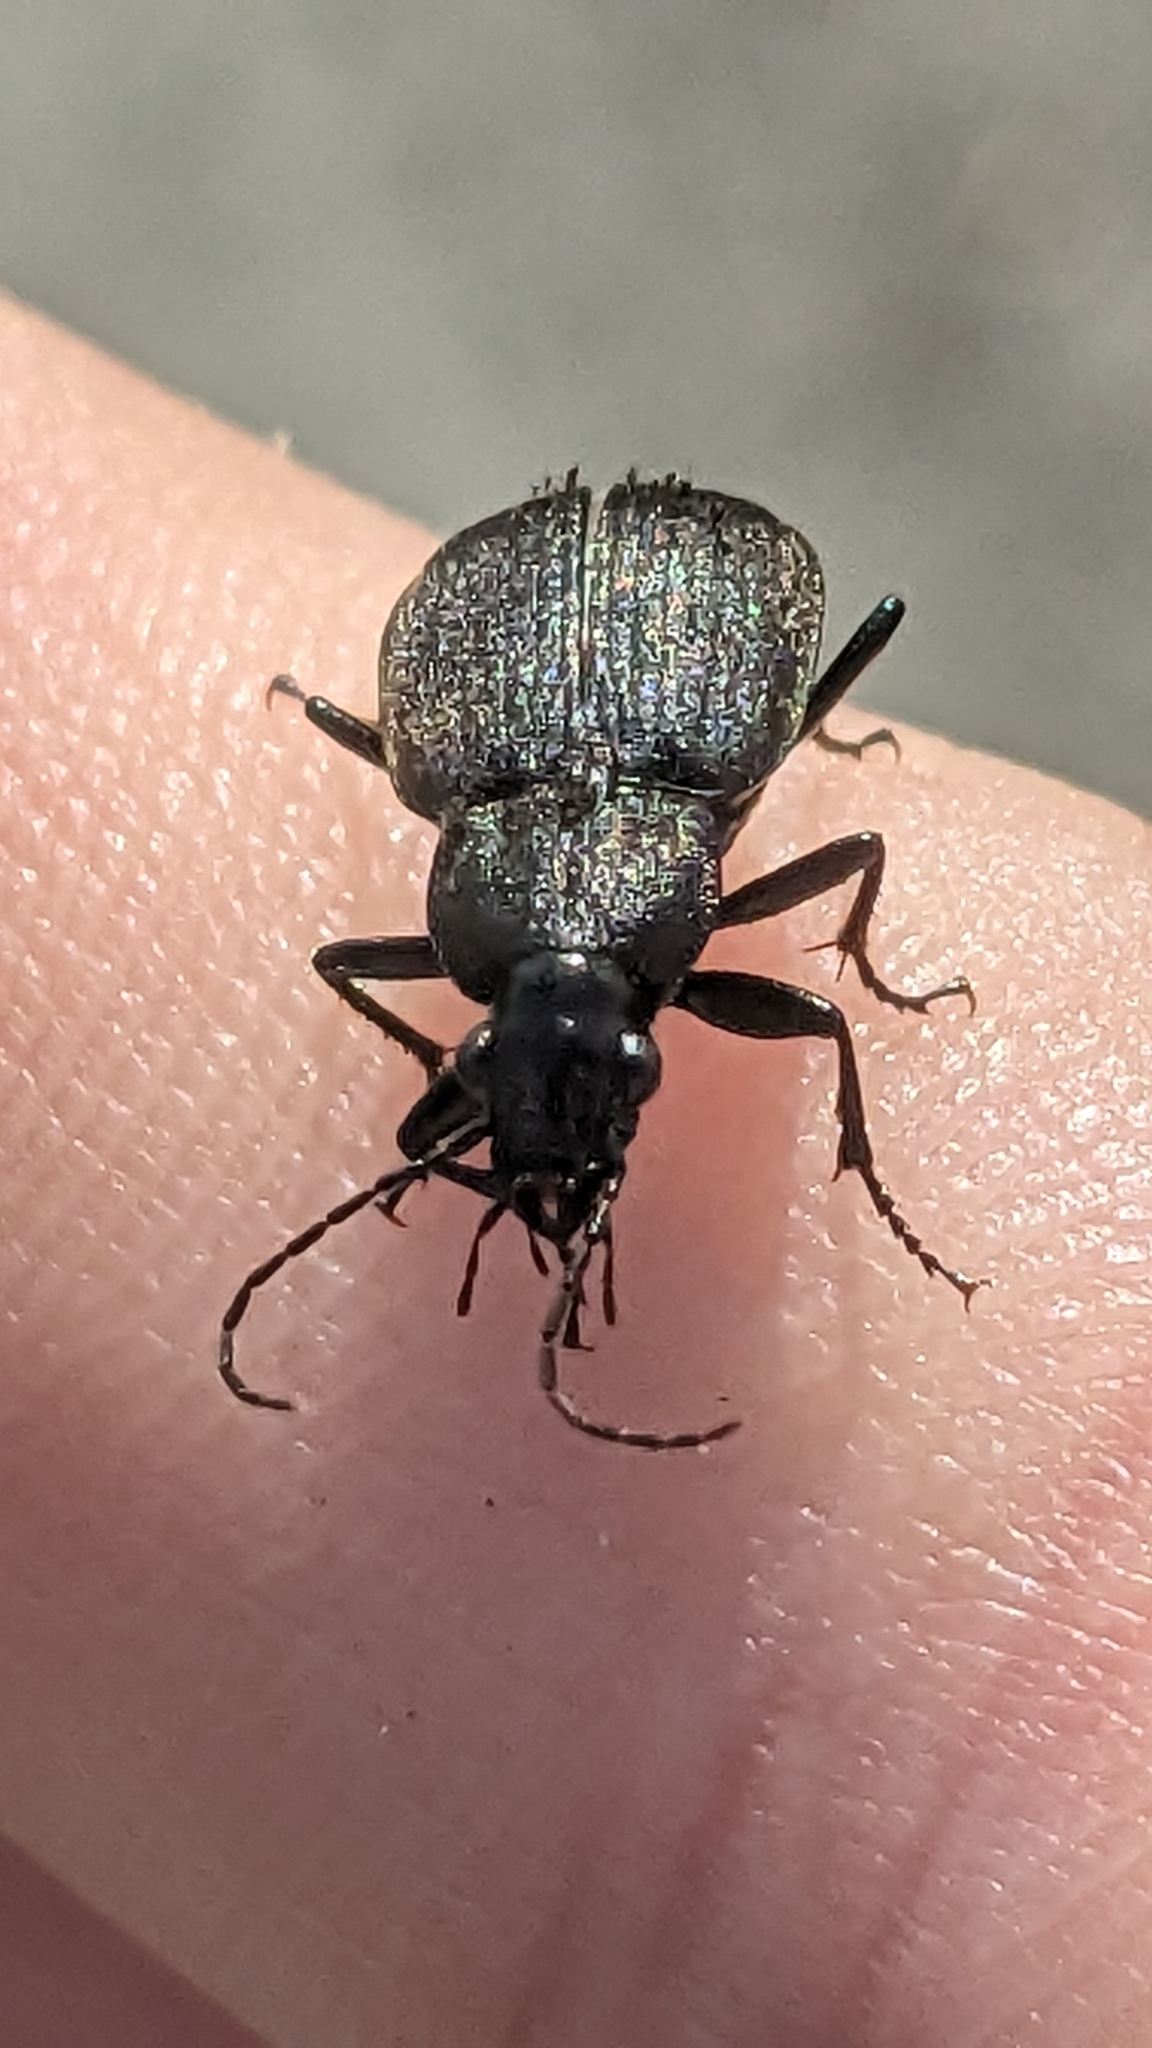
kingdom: Animalia
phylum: Arthropoda
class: Insecta
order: Coleoptera
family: Carabidae
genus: Chlaenius
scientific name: Chlaenius tristis
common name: Black night-runner
